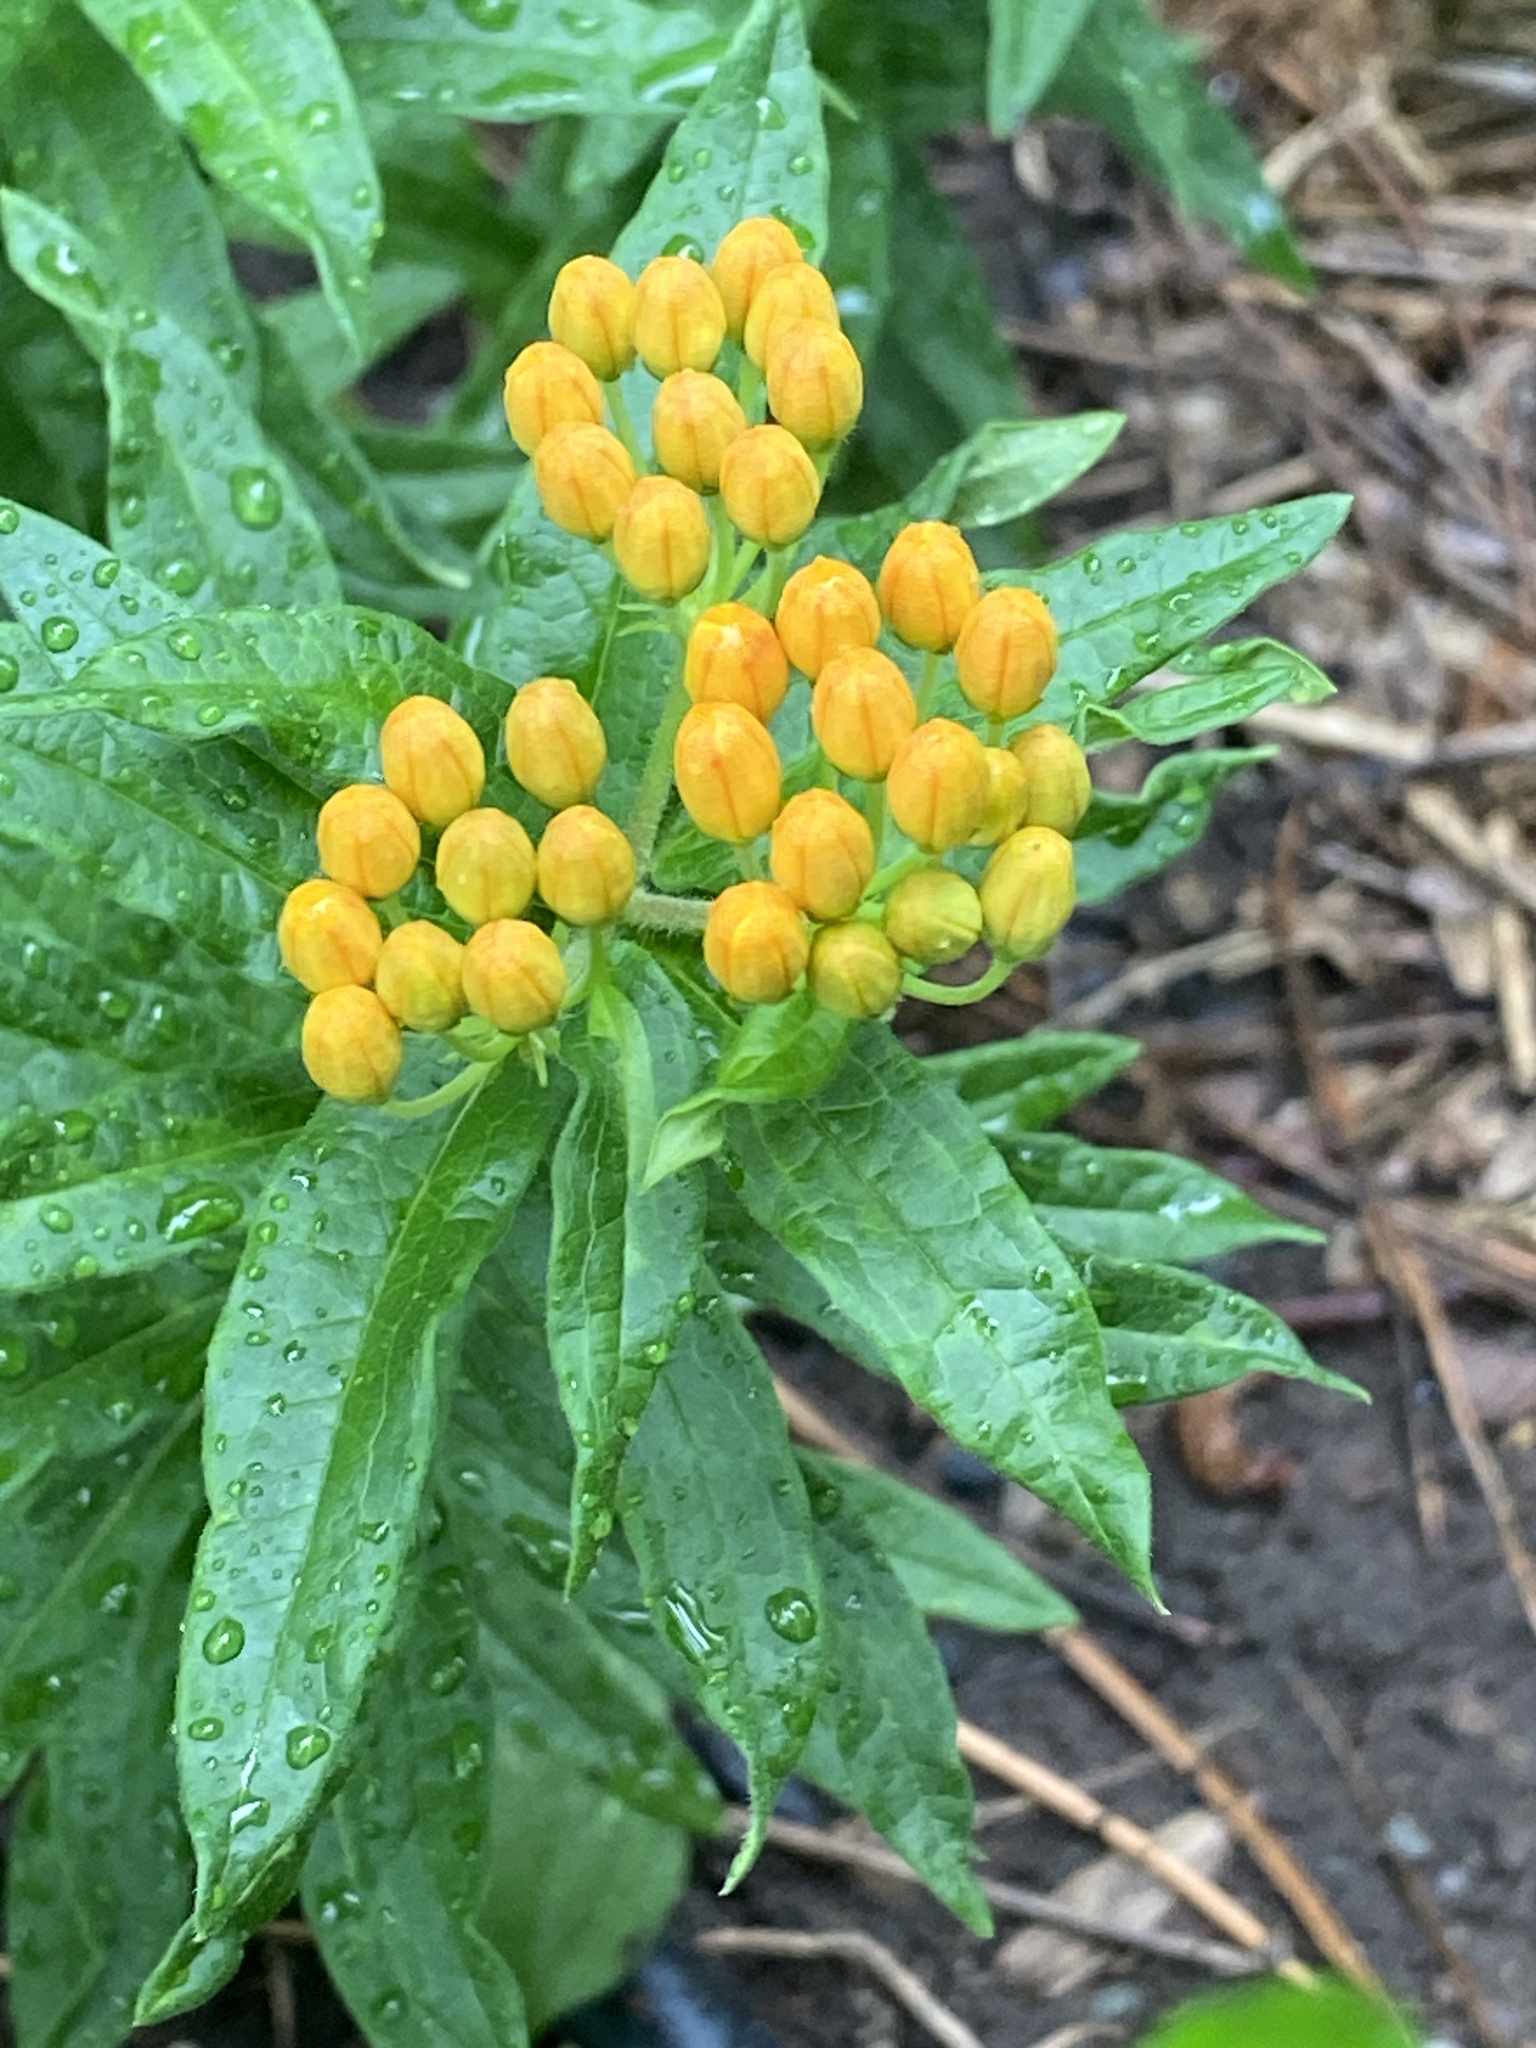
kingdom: Plantae
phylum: Tracheophyta
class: Magnoliopsida
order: Gentianales
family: Apocynaceae
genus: Asclepias
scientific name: Asclepias tuberosa
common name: Butterfly milkweed
